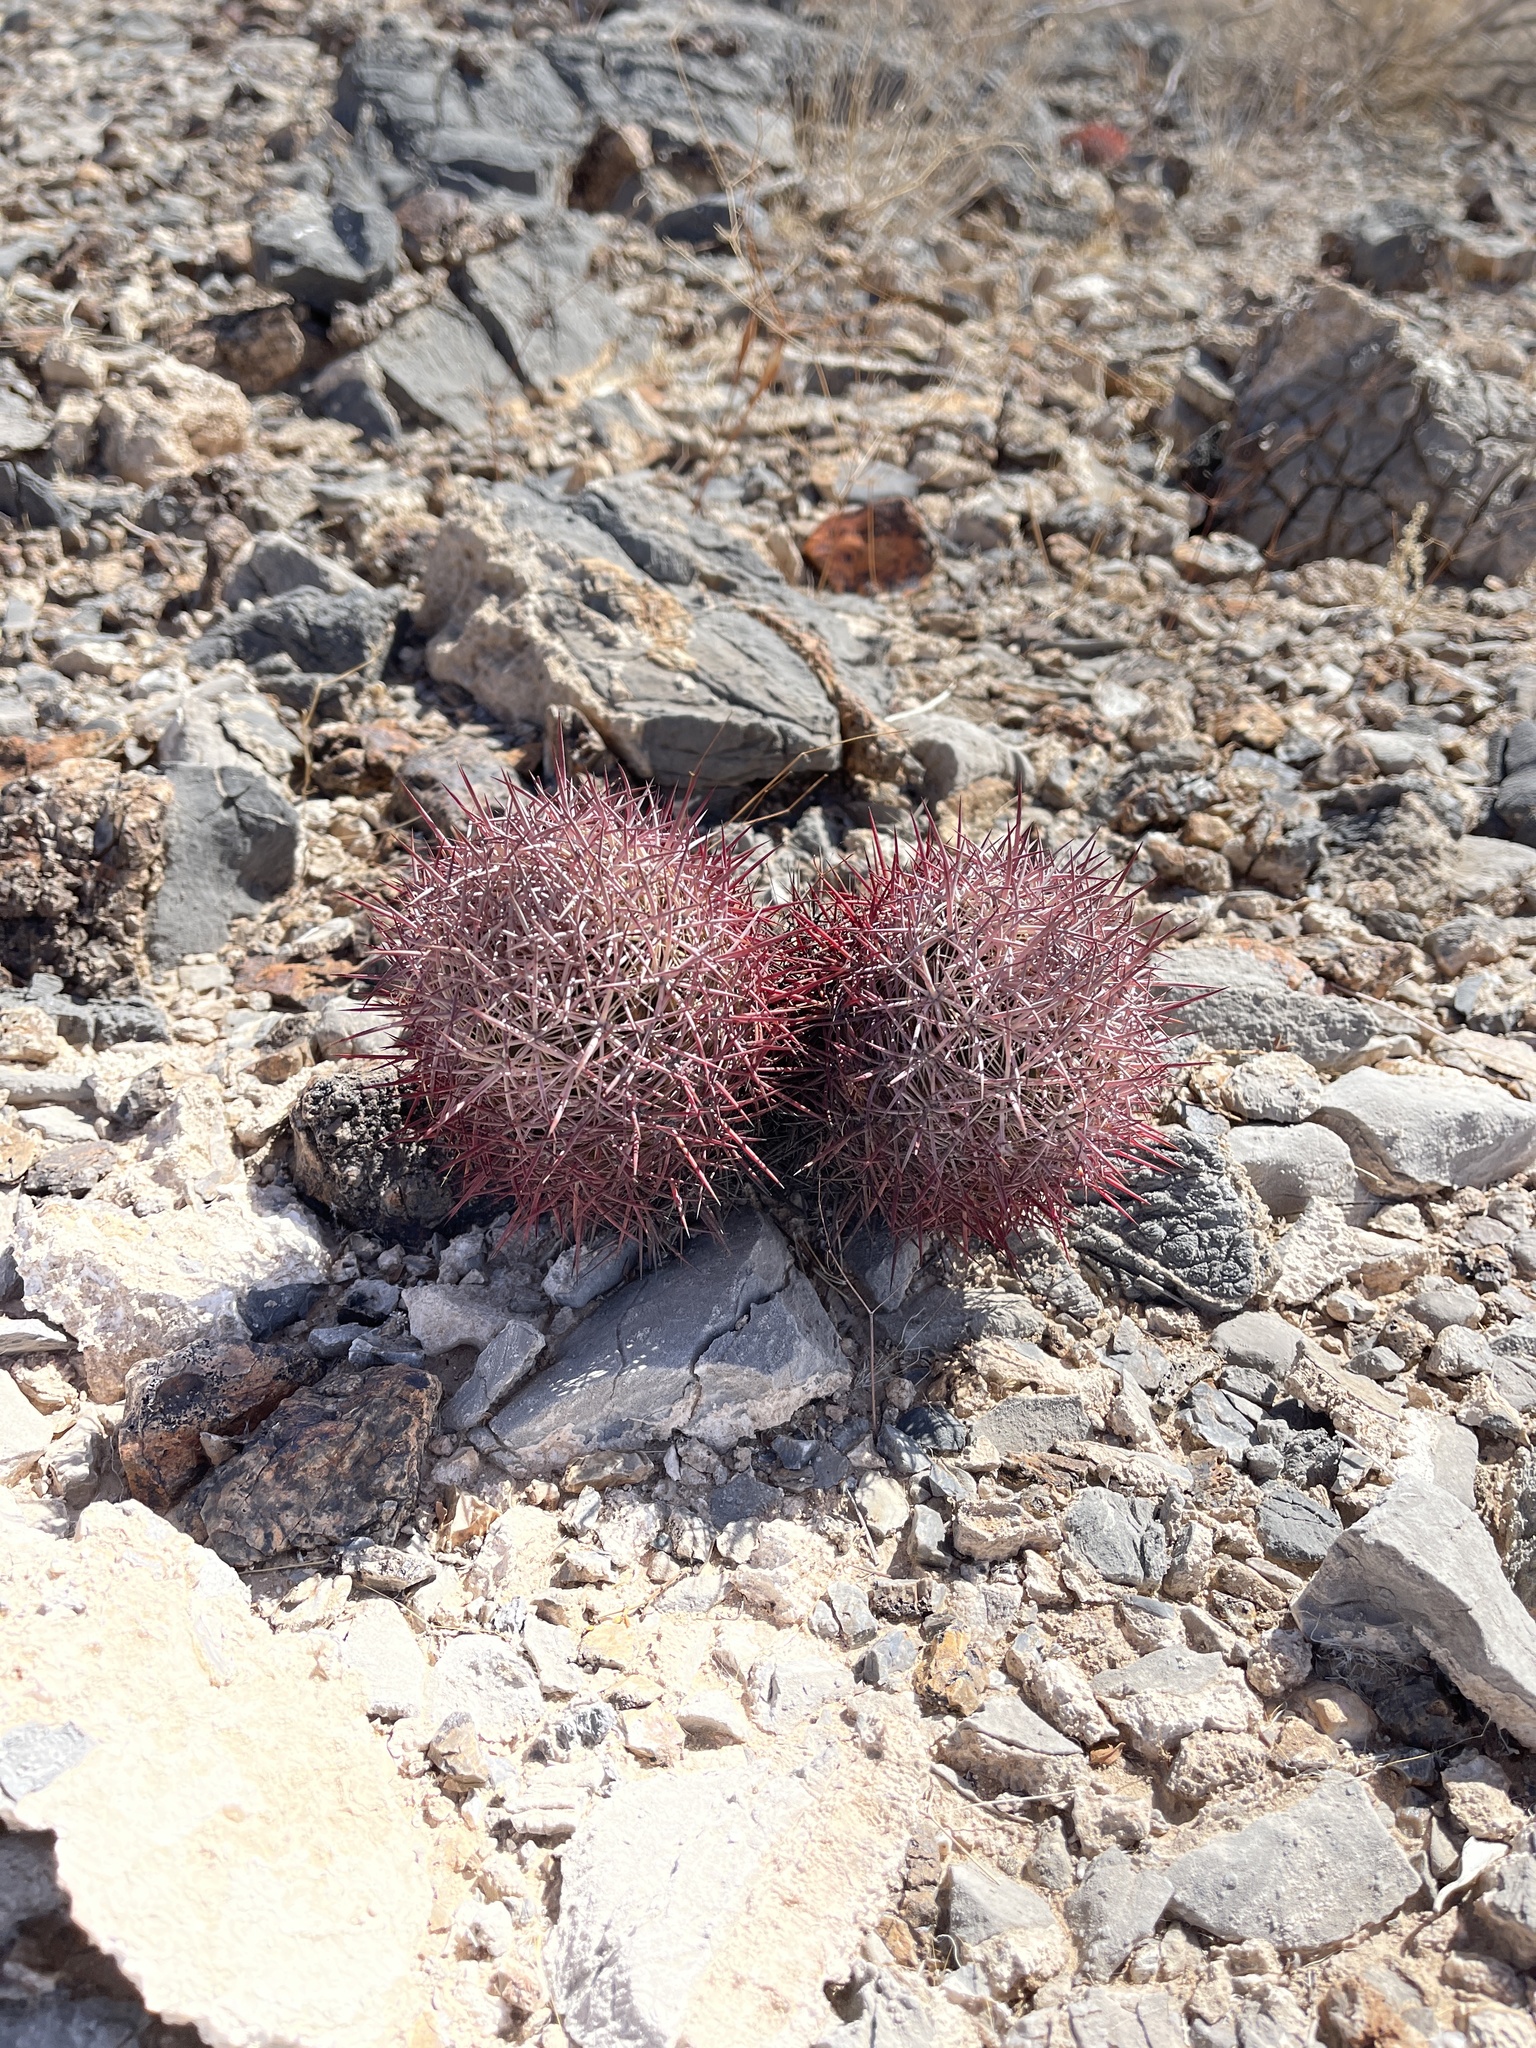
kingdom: Plantae
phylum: Tracheophyta
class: Magnoliopsida
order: Caryophyllales
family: Cactaceae
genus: Sclerocactus
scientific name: Sclerocactus johnsonii
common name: Eight-spine fishhook cactus
